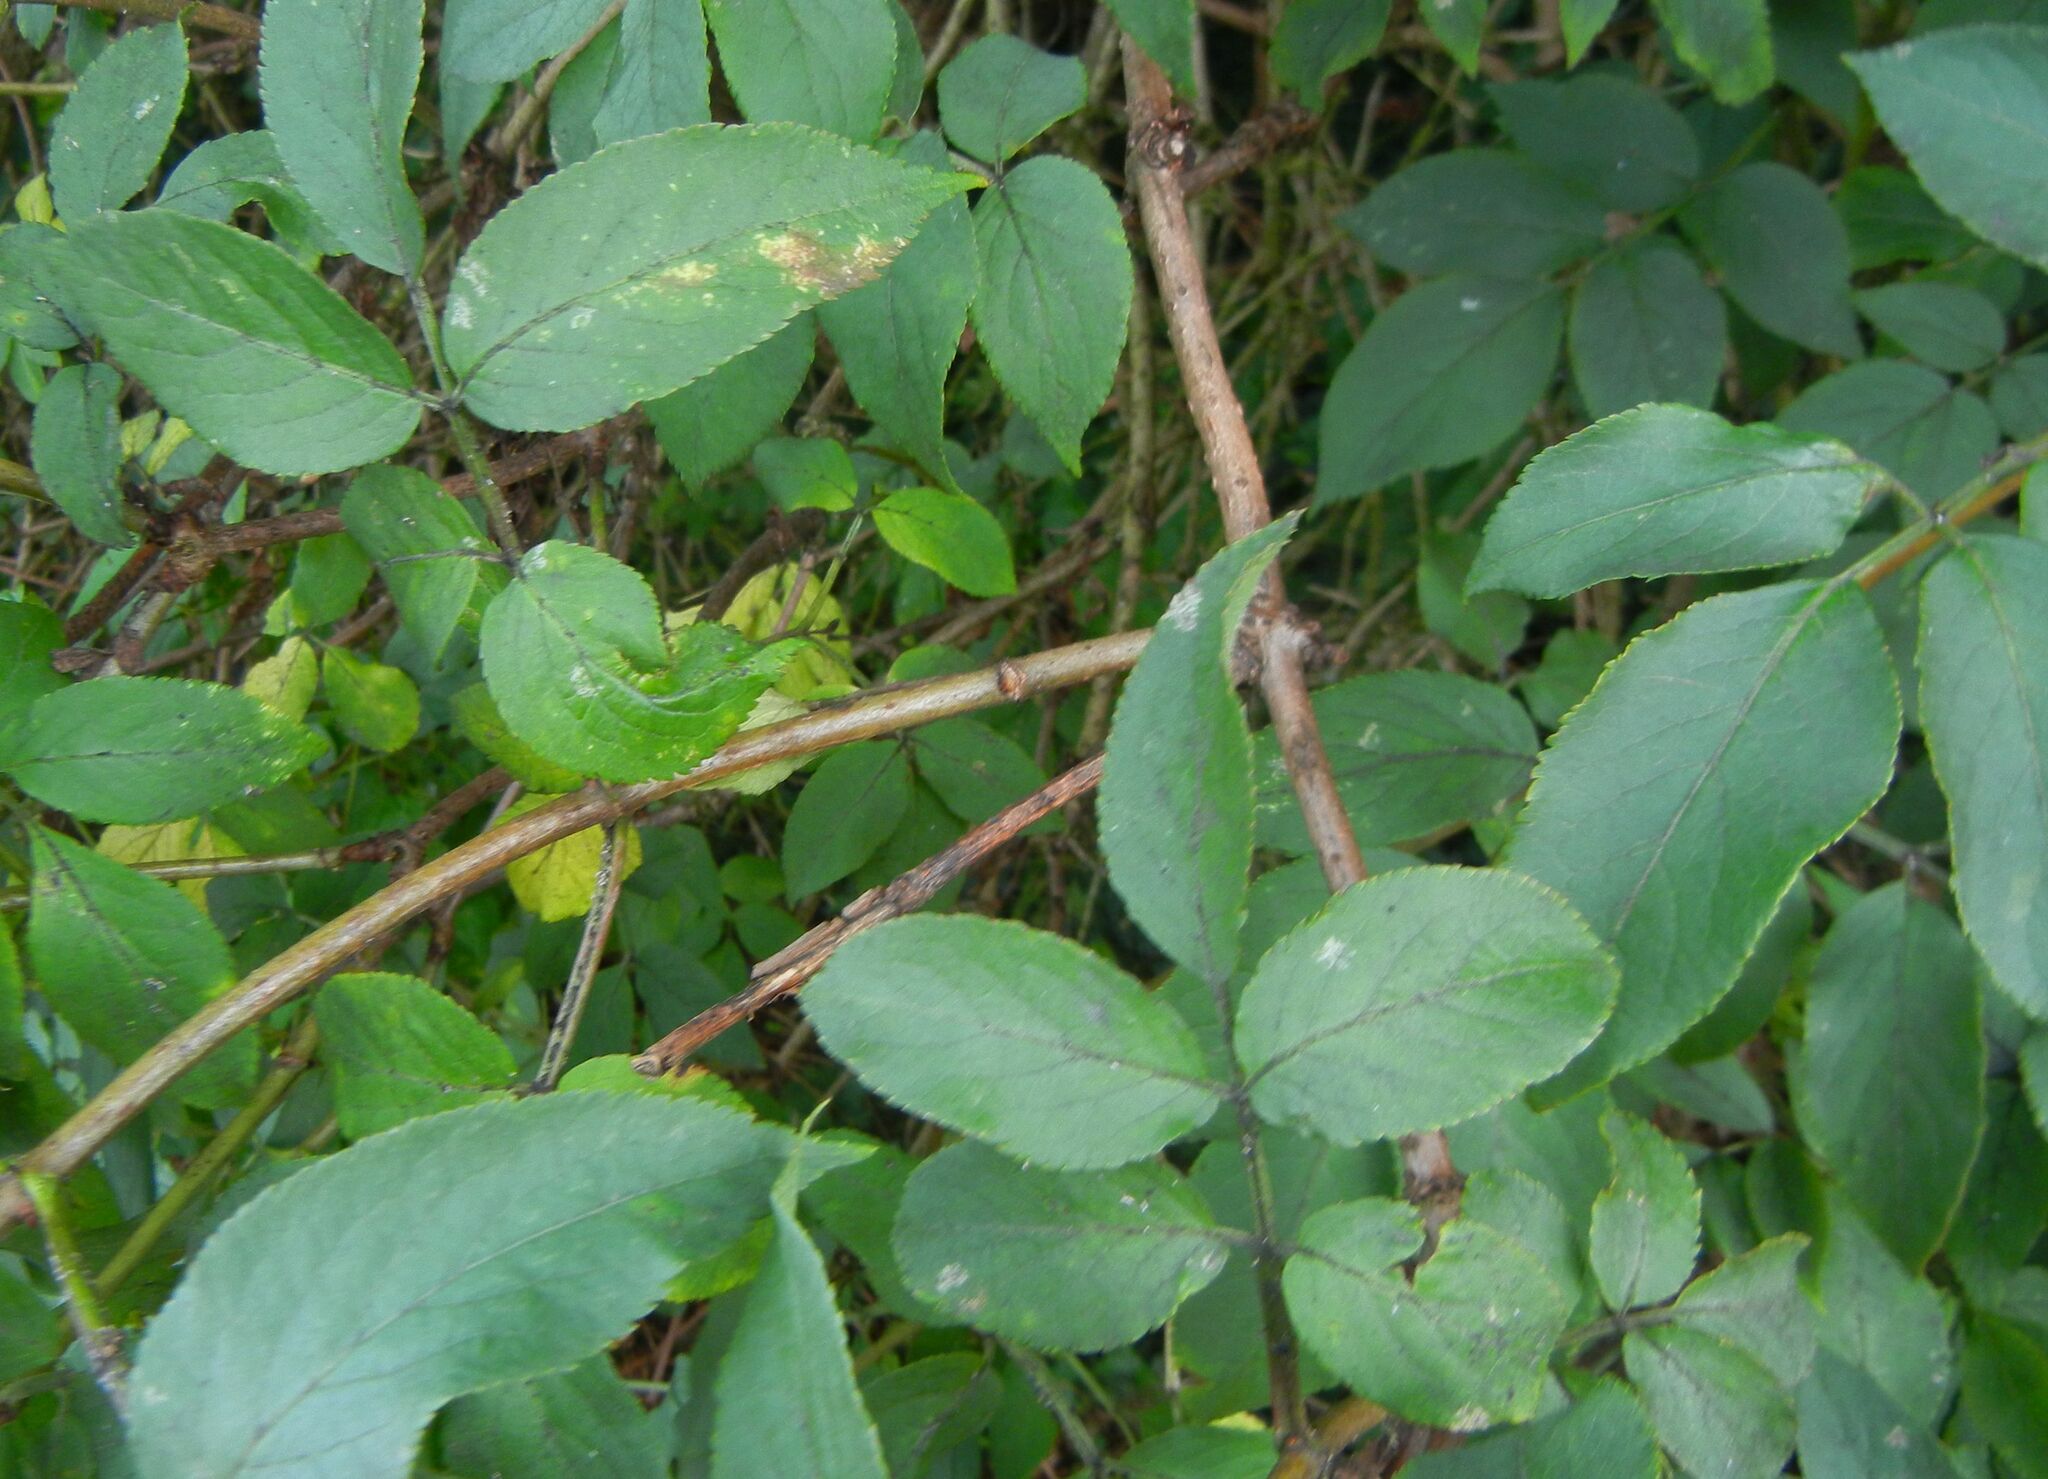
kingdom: Plantae
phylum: Tracheophyta
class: Magnoliopsida
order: Dipsacales
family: Viburnaceae
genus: Sambucus
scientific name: Sambucus nigra
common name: Elder
